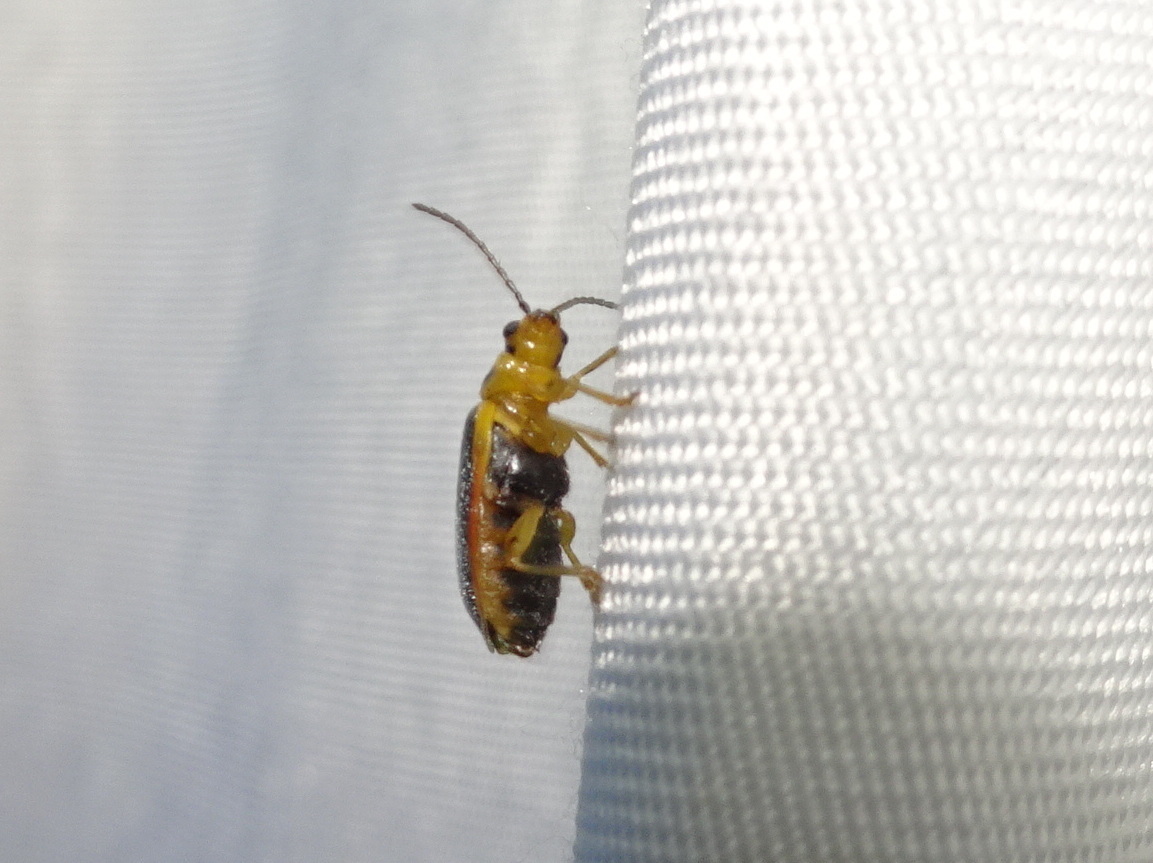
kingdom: Animalia
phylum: Arthropoda
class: Insecta
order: Coleoptera
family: Chrysomelidae
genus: Xanthogaleruca
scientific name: Xanthogaleruca luteola
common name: Elm leaf beetle
